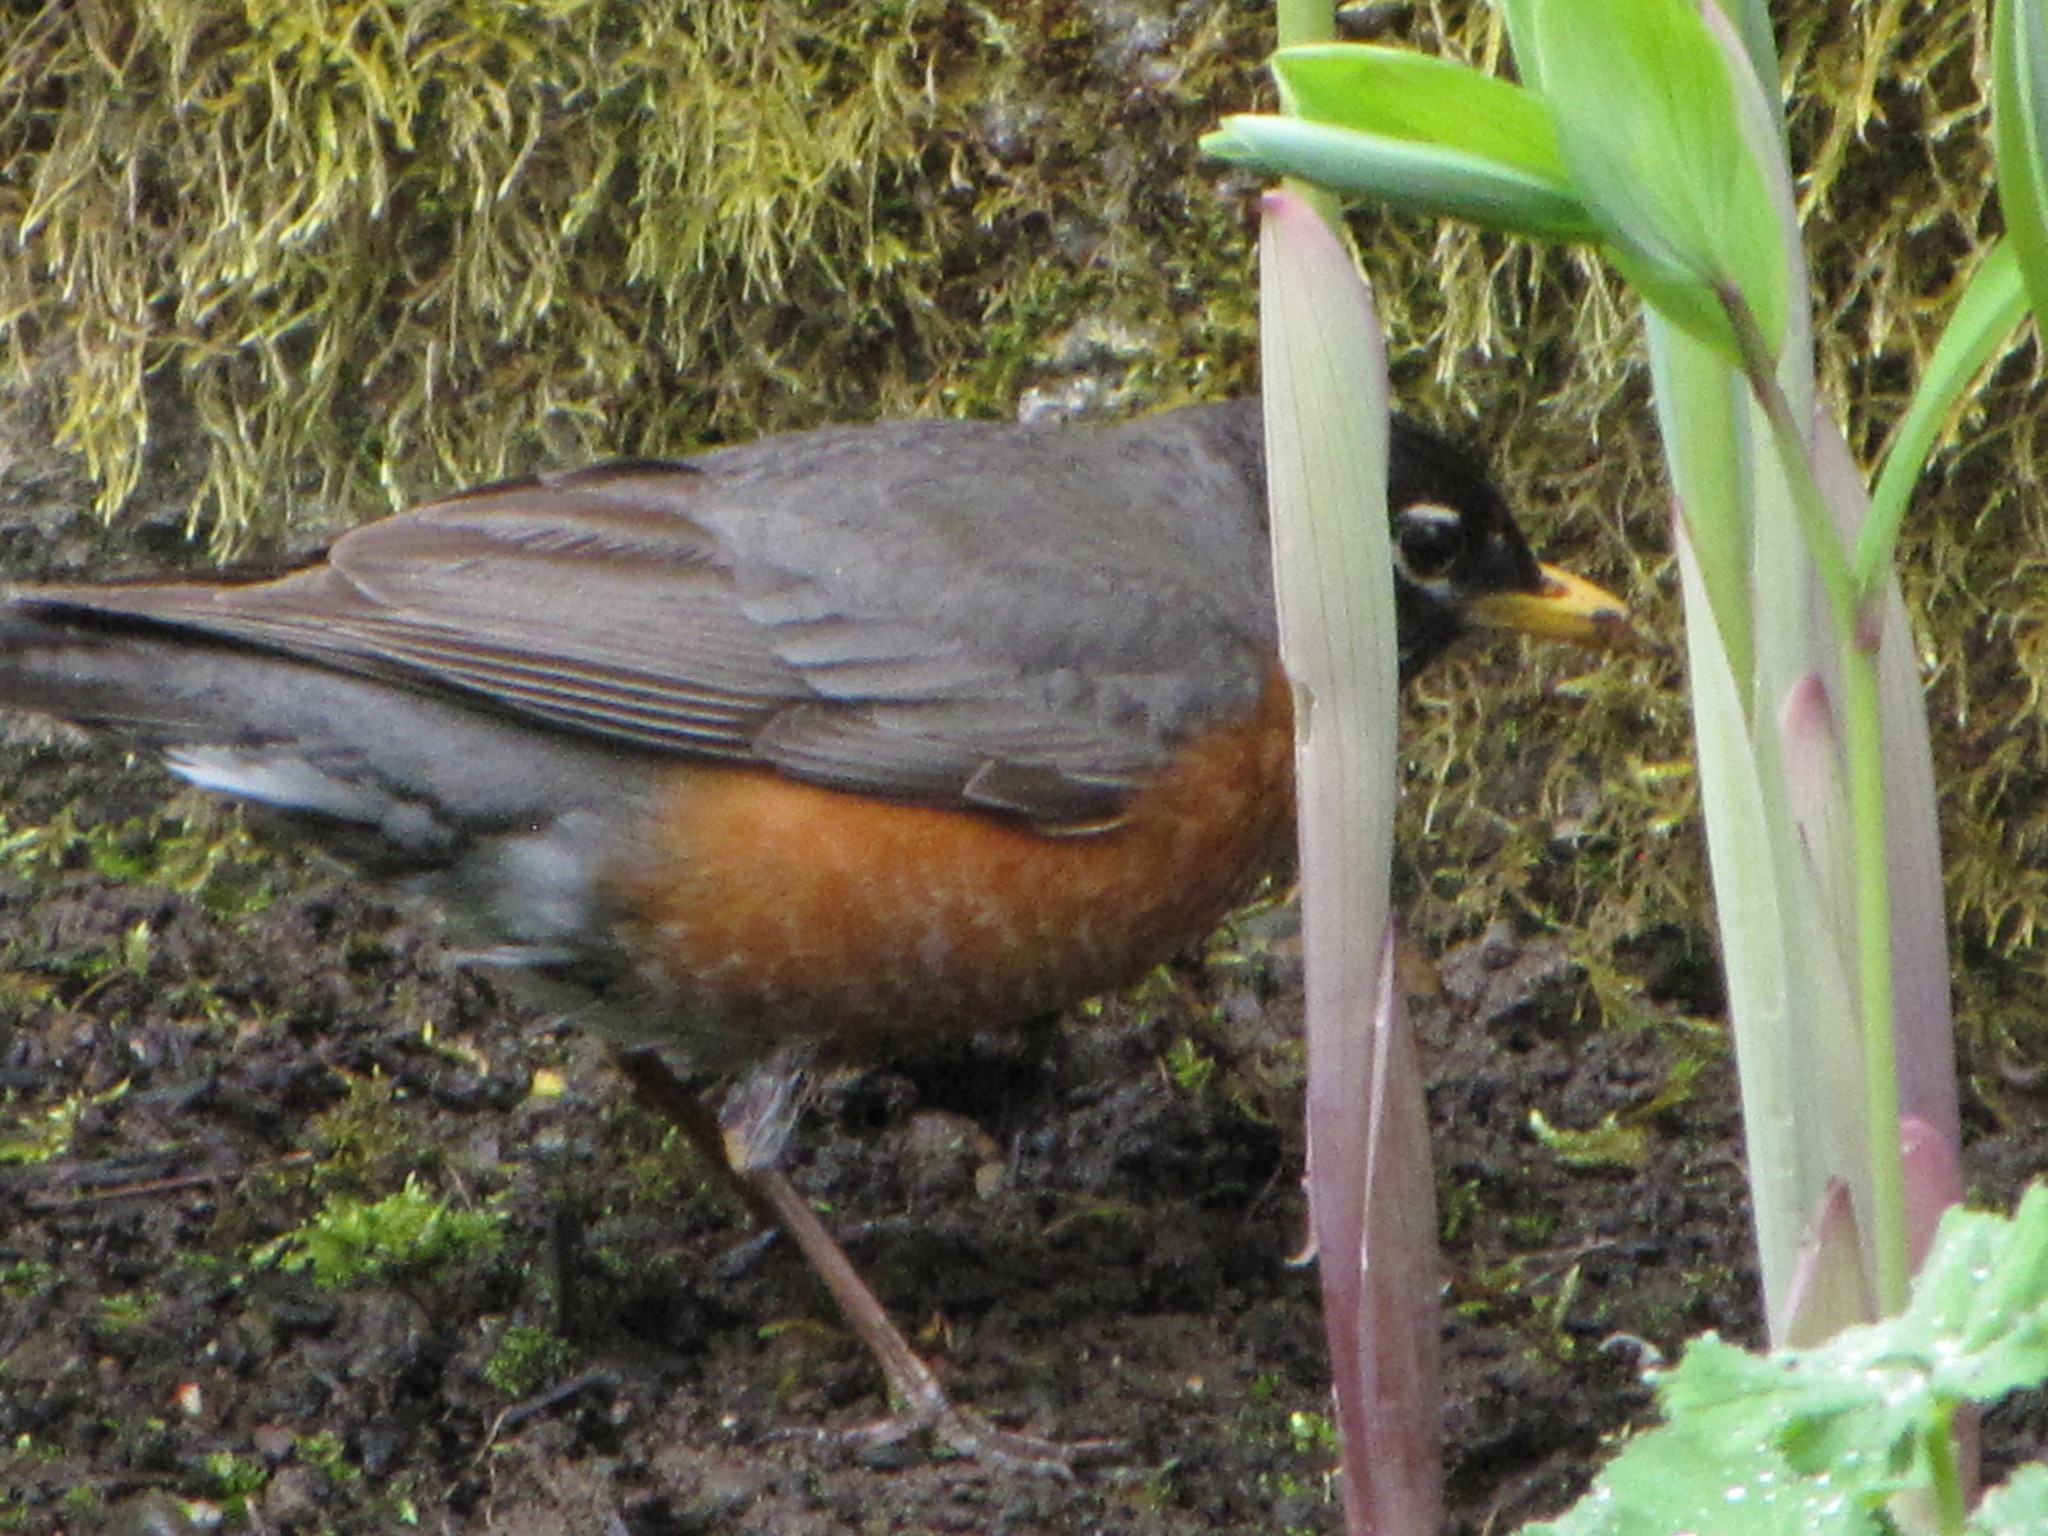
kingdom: Animalia
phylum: Chordata
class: Aves
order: Passeriformes
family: Turdidae
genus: Turdus
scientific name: Turdus migratorius
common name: American robin
